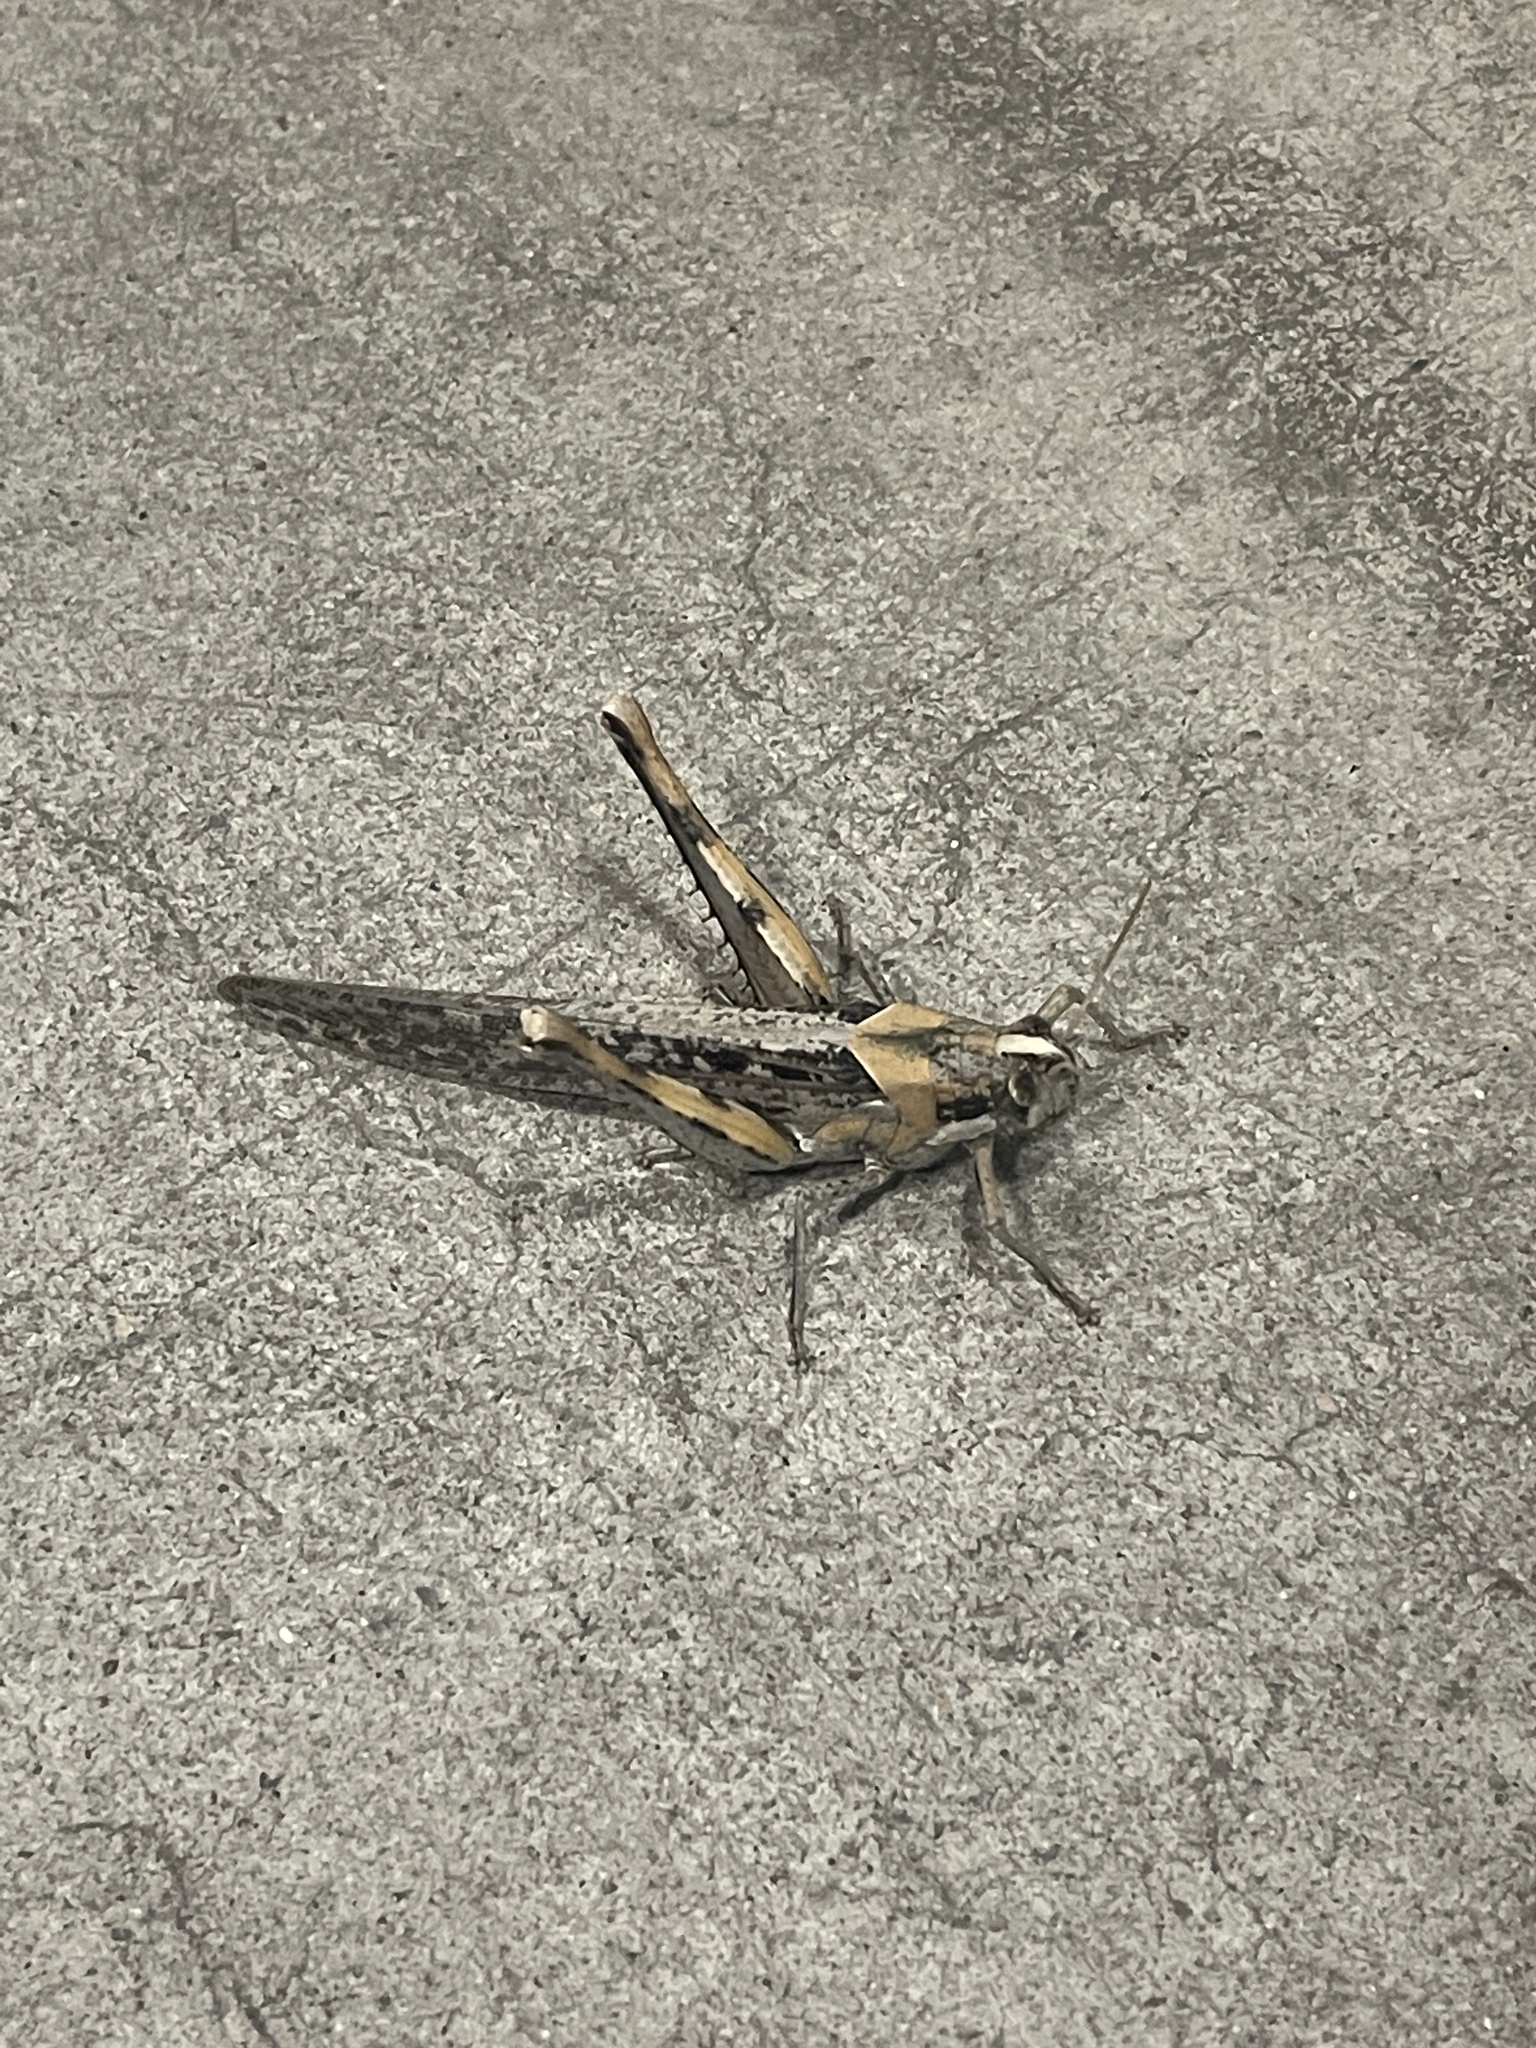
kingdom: Animalia
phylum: Arthropoda
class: Insecta
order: Orthoptera
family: Acrididae
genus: Schistocerca
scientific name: Schistocerca nitens
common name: Vagrant grasshopper
